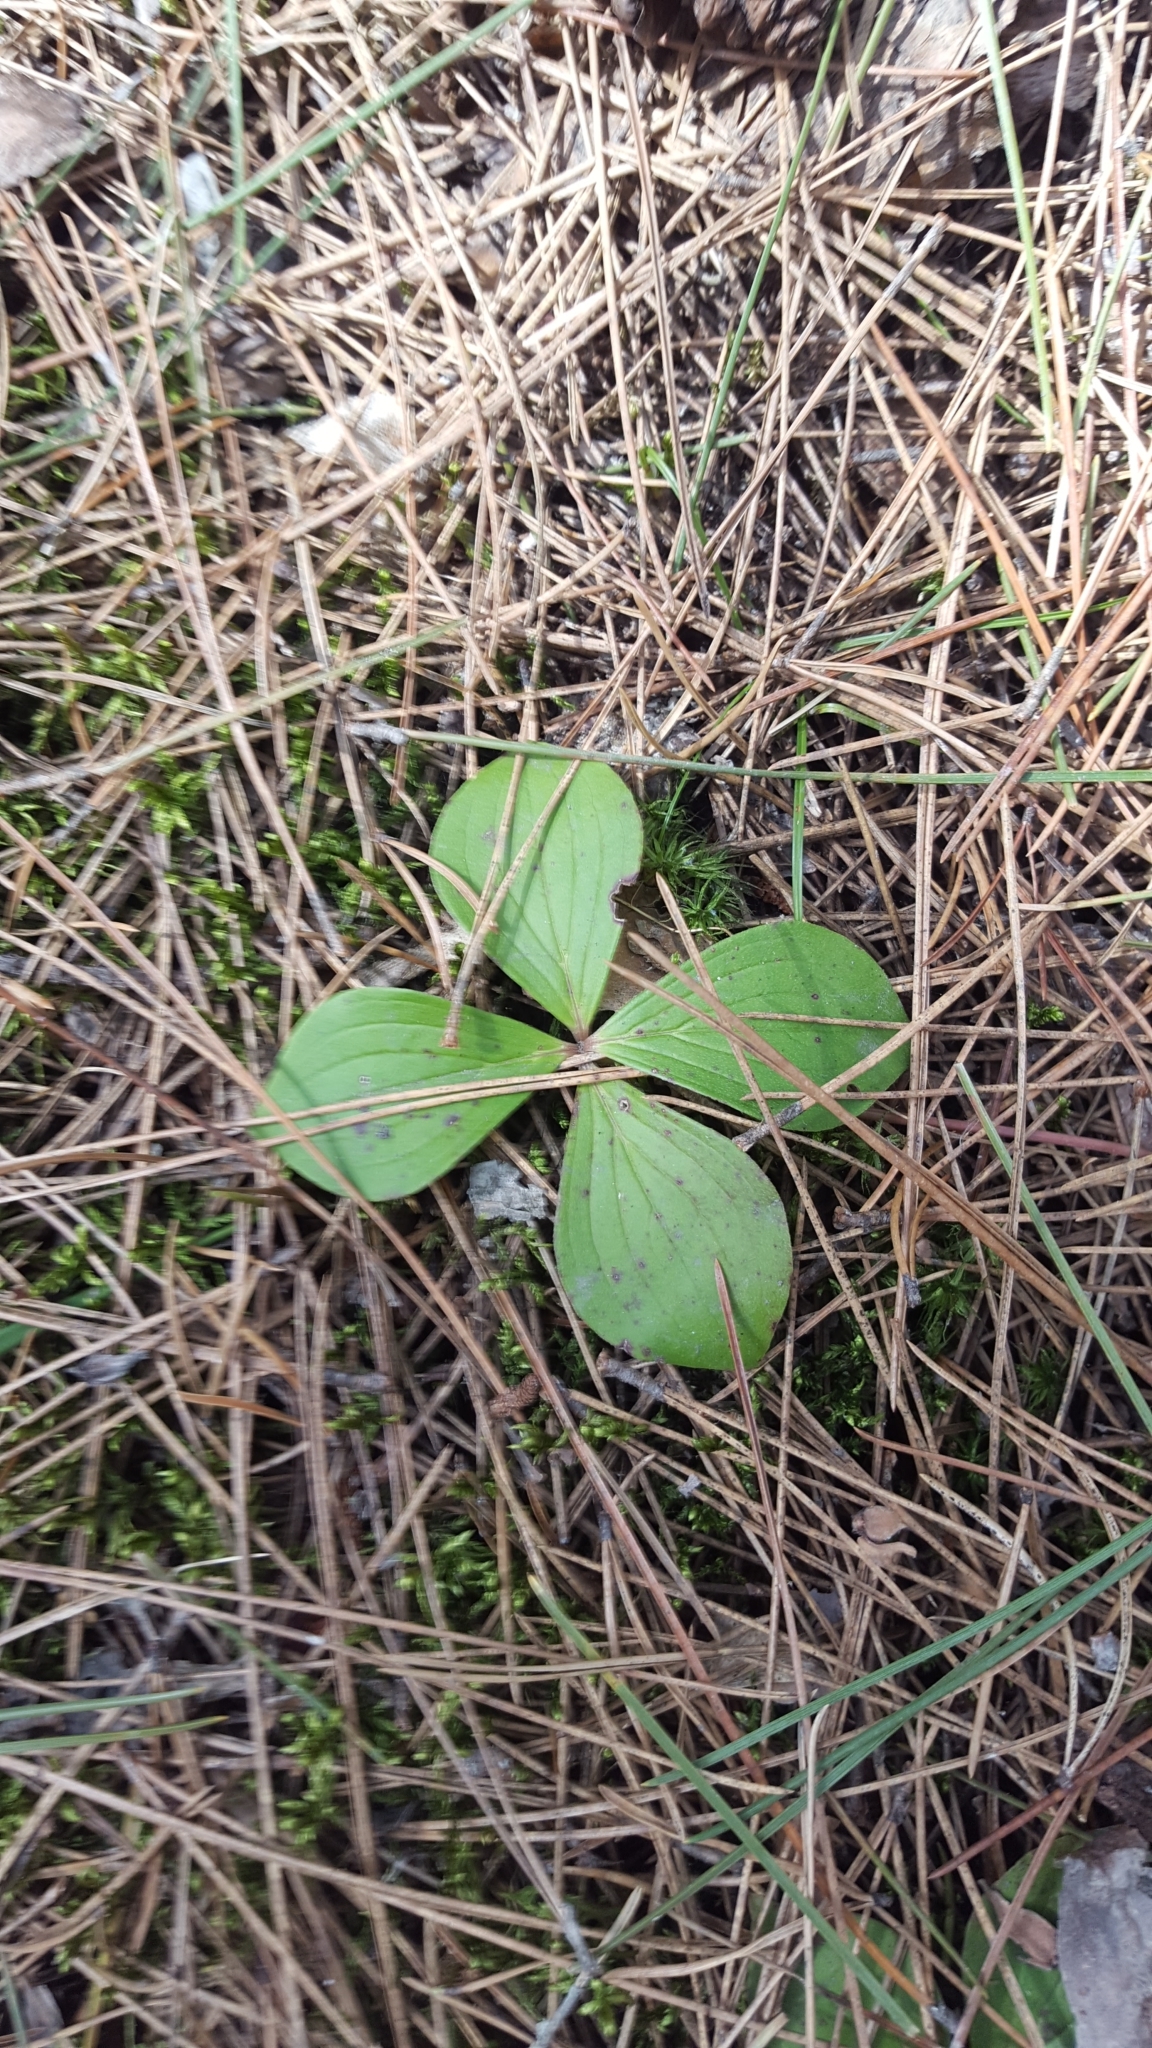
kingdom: Plantae
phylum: Tracheophyta
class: Magnoliopsida
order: Cornales
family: Cornaceae
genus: Cornus
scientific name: Cornus canadensis
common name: Creeping dogwood
